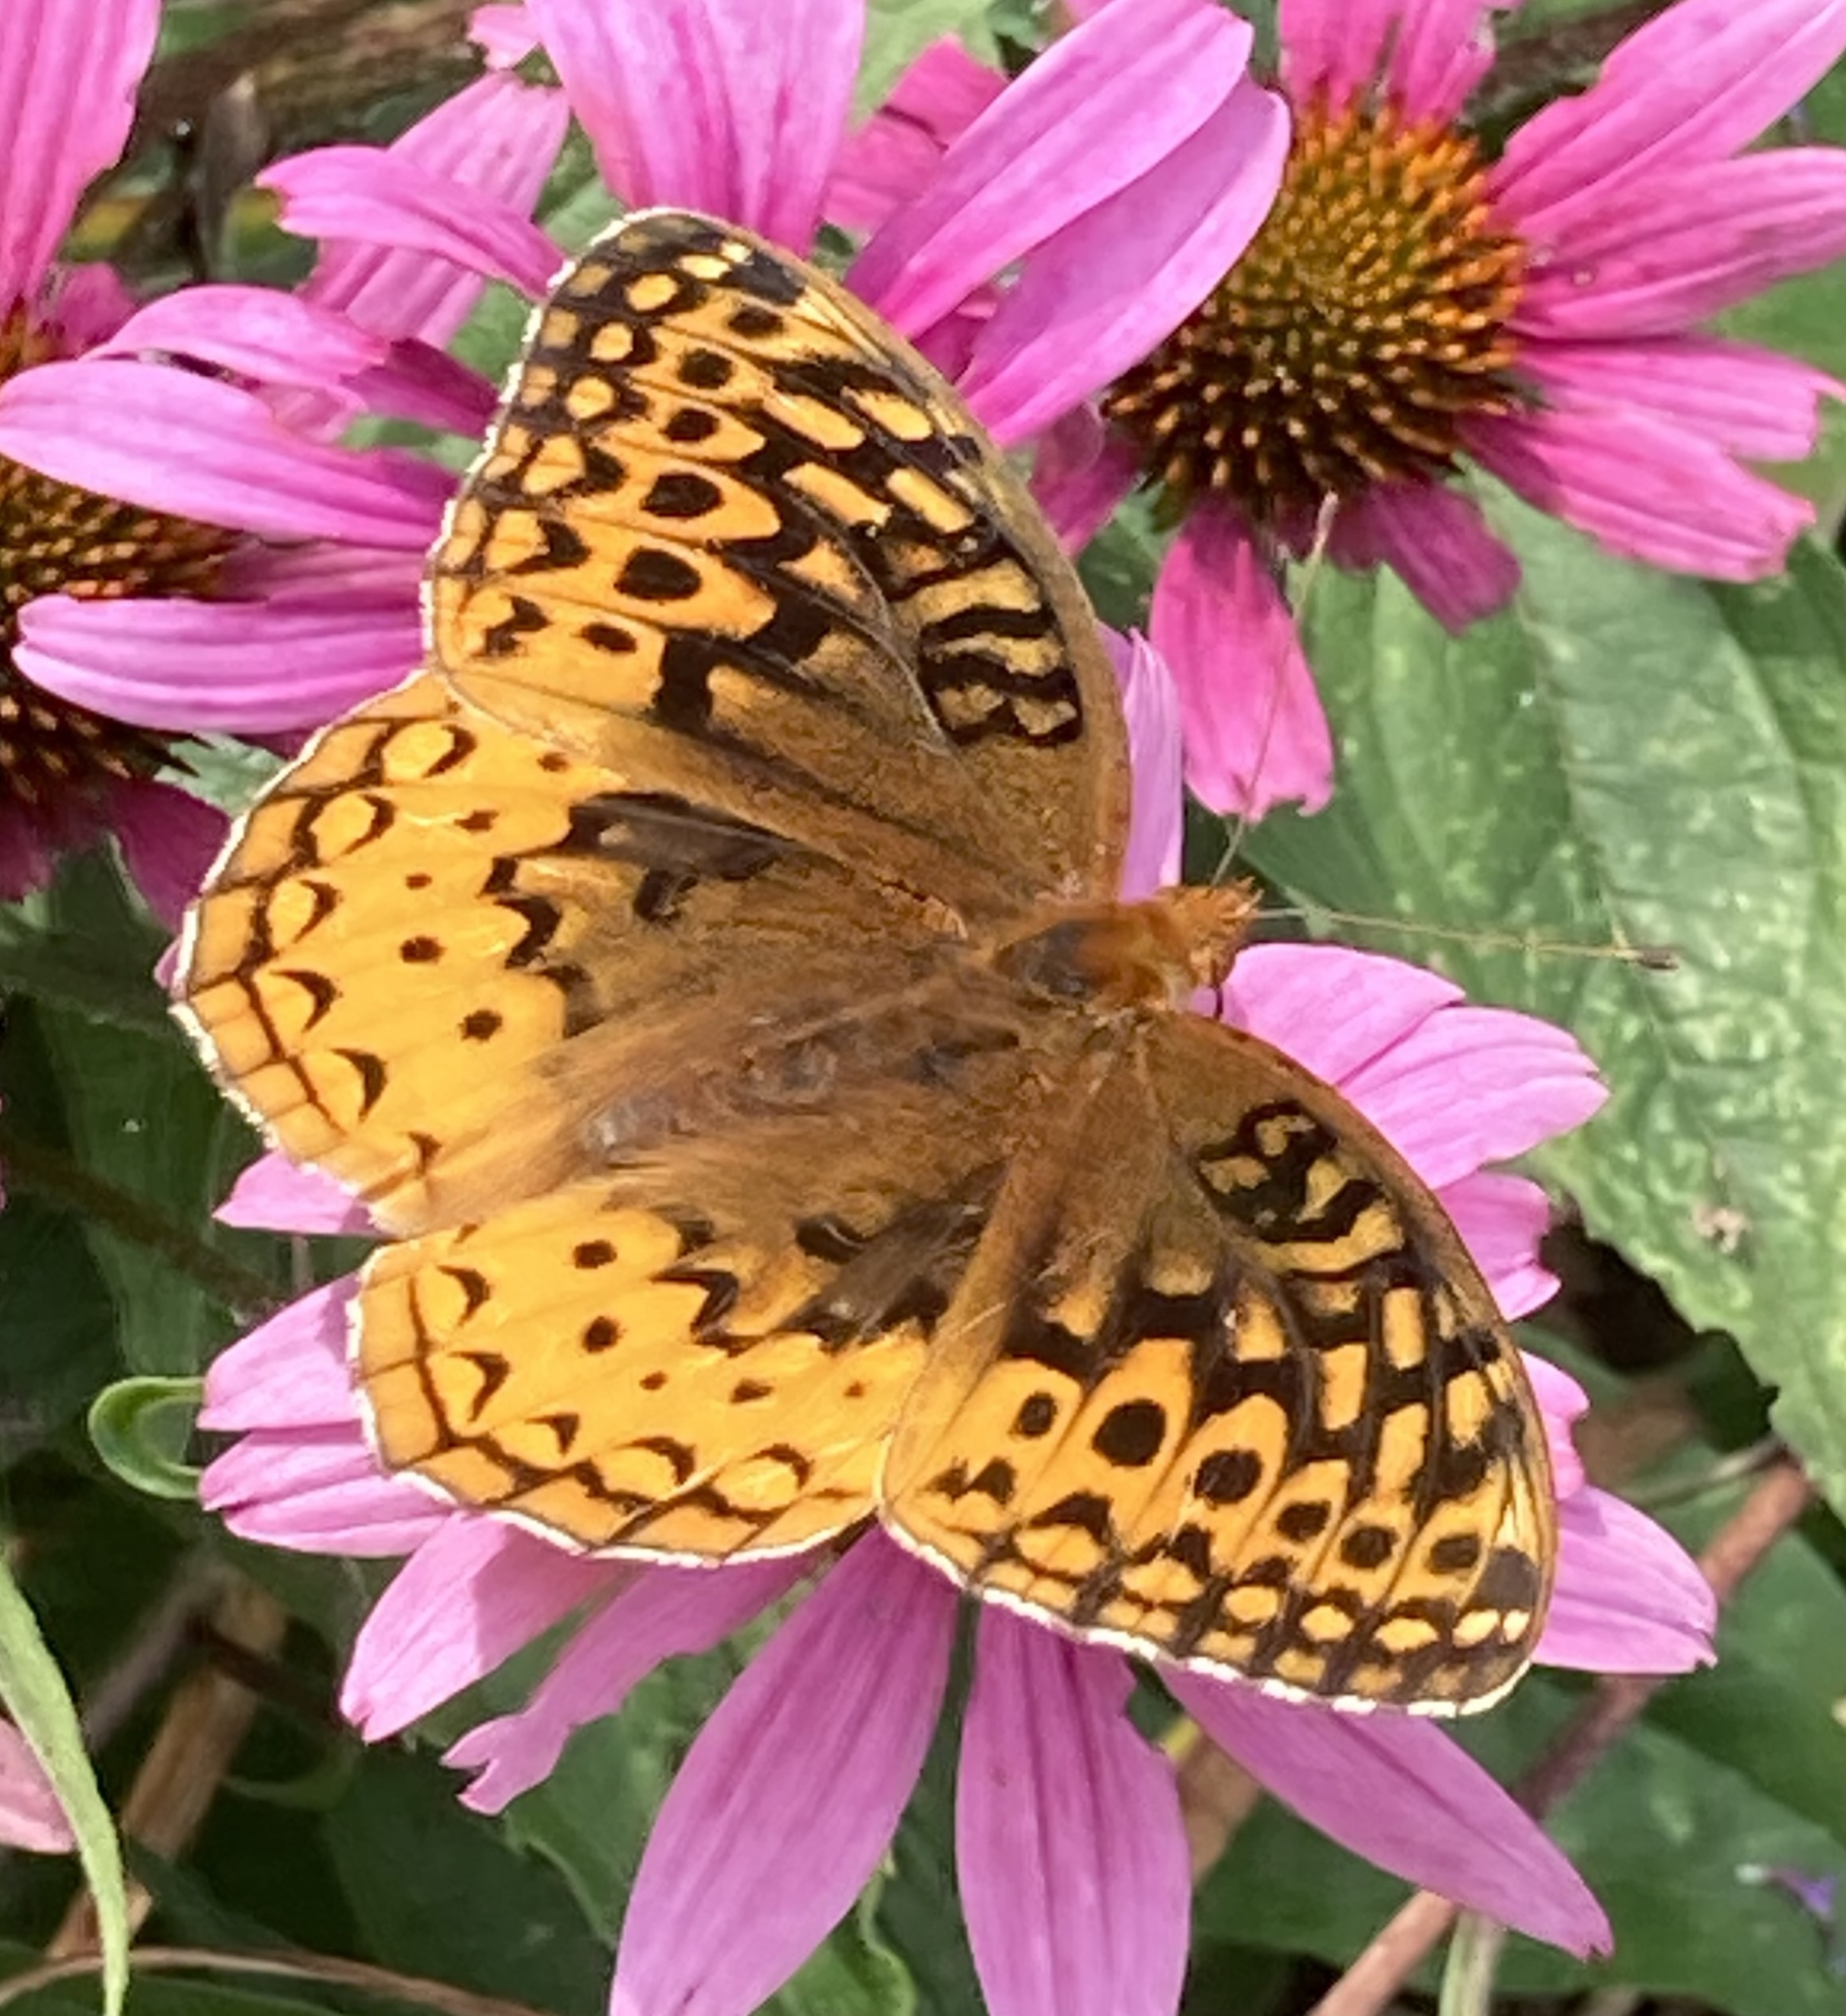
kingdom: Animalia
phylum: Arthropoda
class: Insecta
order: Lepidoptera
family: Nymphalidae
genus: Speyeria
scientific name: Speyeria cybele
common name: Great spangled fritillary
